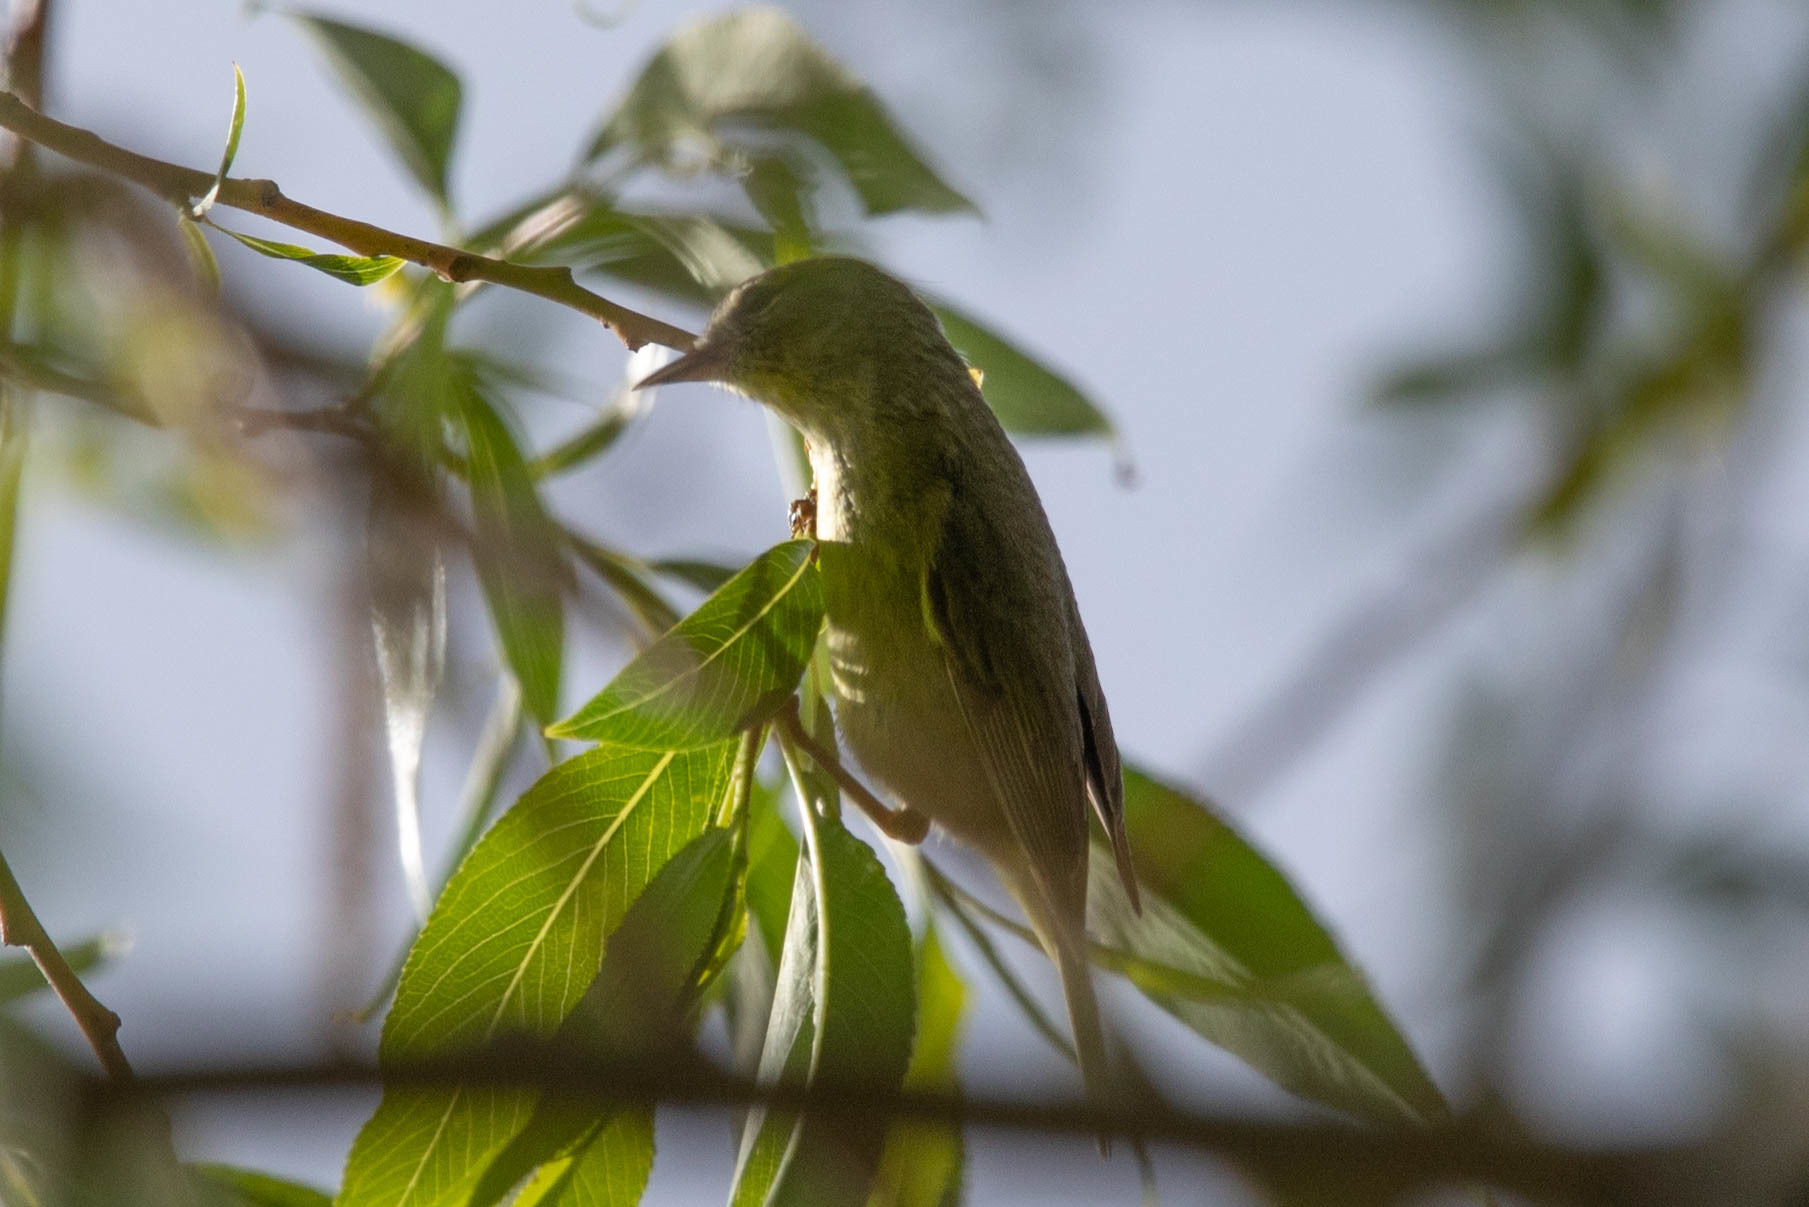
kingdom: Animalia
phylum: Chordata
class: Aves
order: Passeriformes
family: Parulidae
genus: Leiothlypis
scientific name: Leiothlypis celata
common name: Orange-crowned warbler
